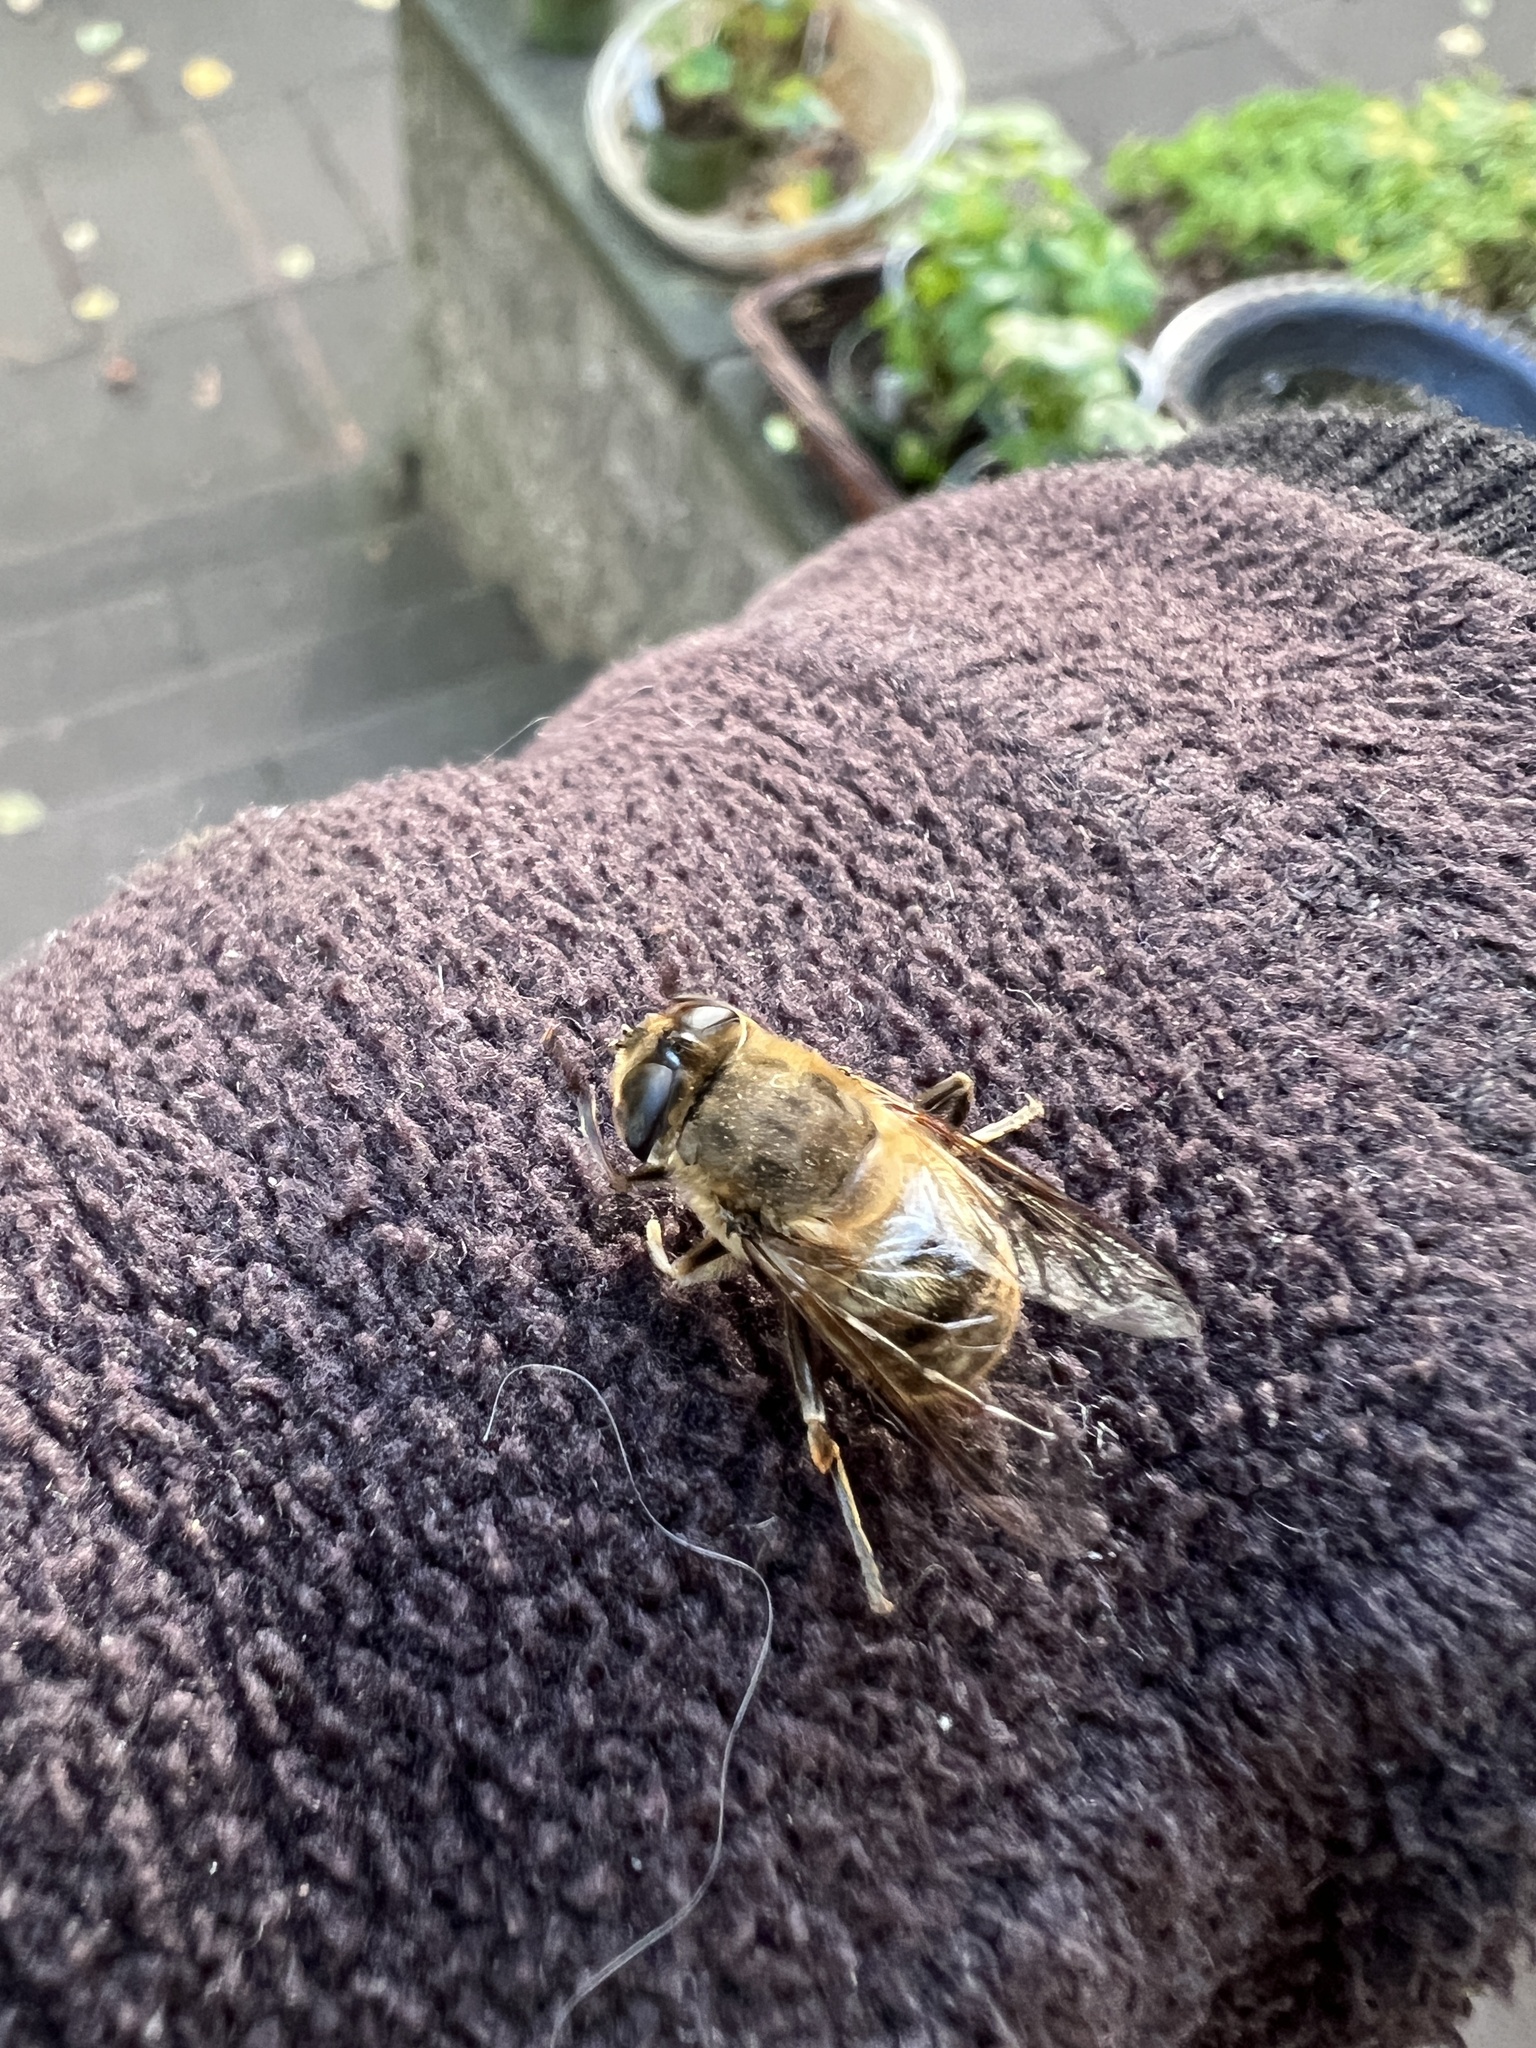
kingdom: Animalia
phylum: Arthropoda
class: Insecta
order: Diptera
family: Syrphidae
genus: Eristalis
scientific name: Eristalis tenax
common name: Drone fly
